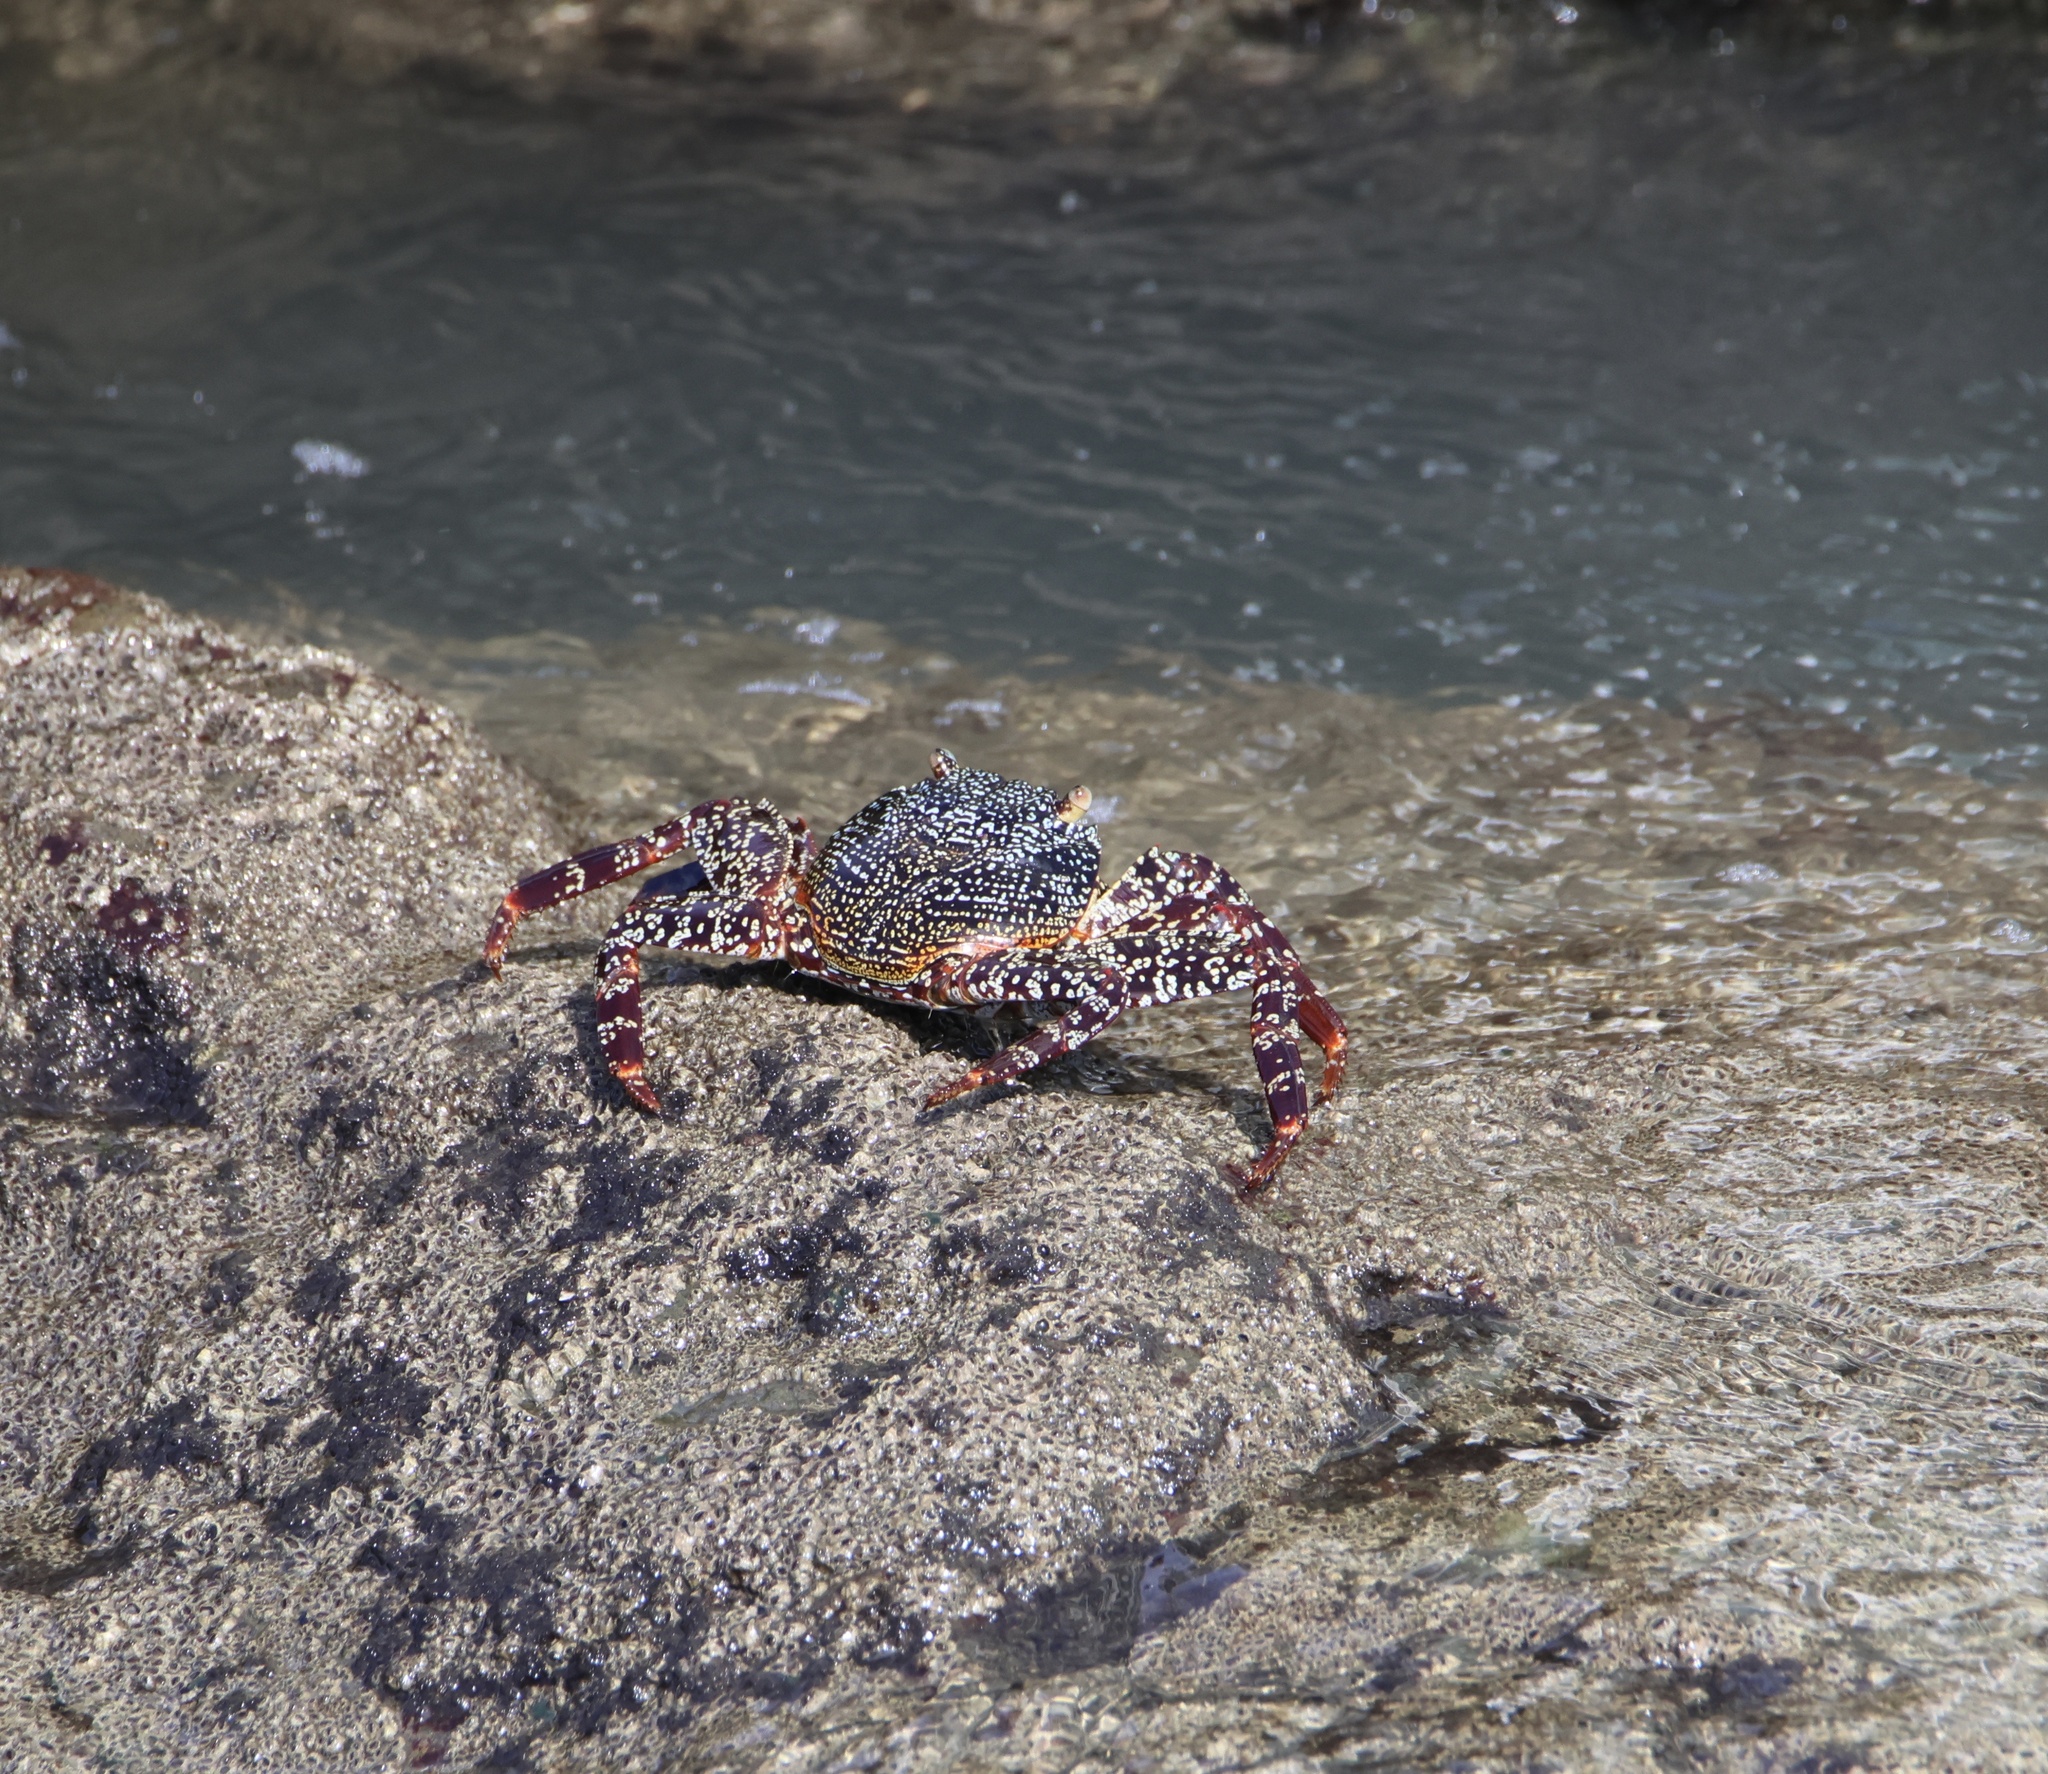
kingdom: Animalia
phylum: Arthropoda
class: Malacostraca
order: Decapoda
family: Grapsidae
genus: Grapsus
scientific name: Grapsus grapsus
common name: Sally lightfoot
